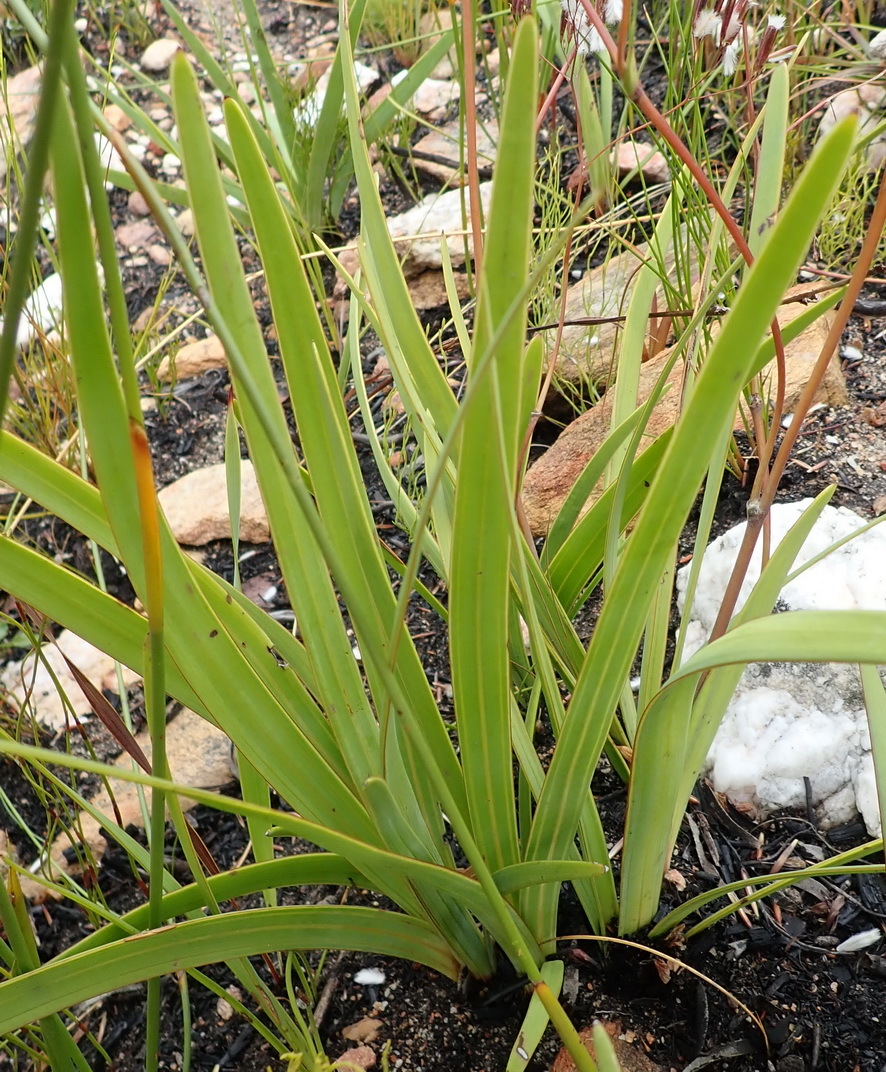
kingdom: Plantae
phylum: Tracheophyta
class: Magnoliopsida
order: Asterales
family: Asteraceae
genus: Corymbium
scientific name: Corymbium glabrum
